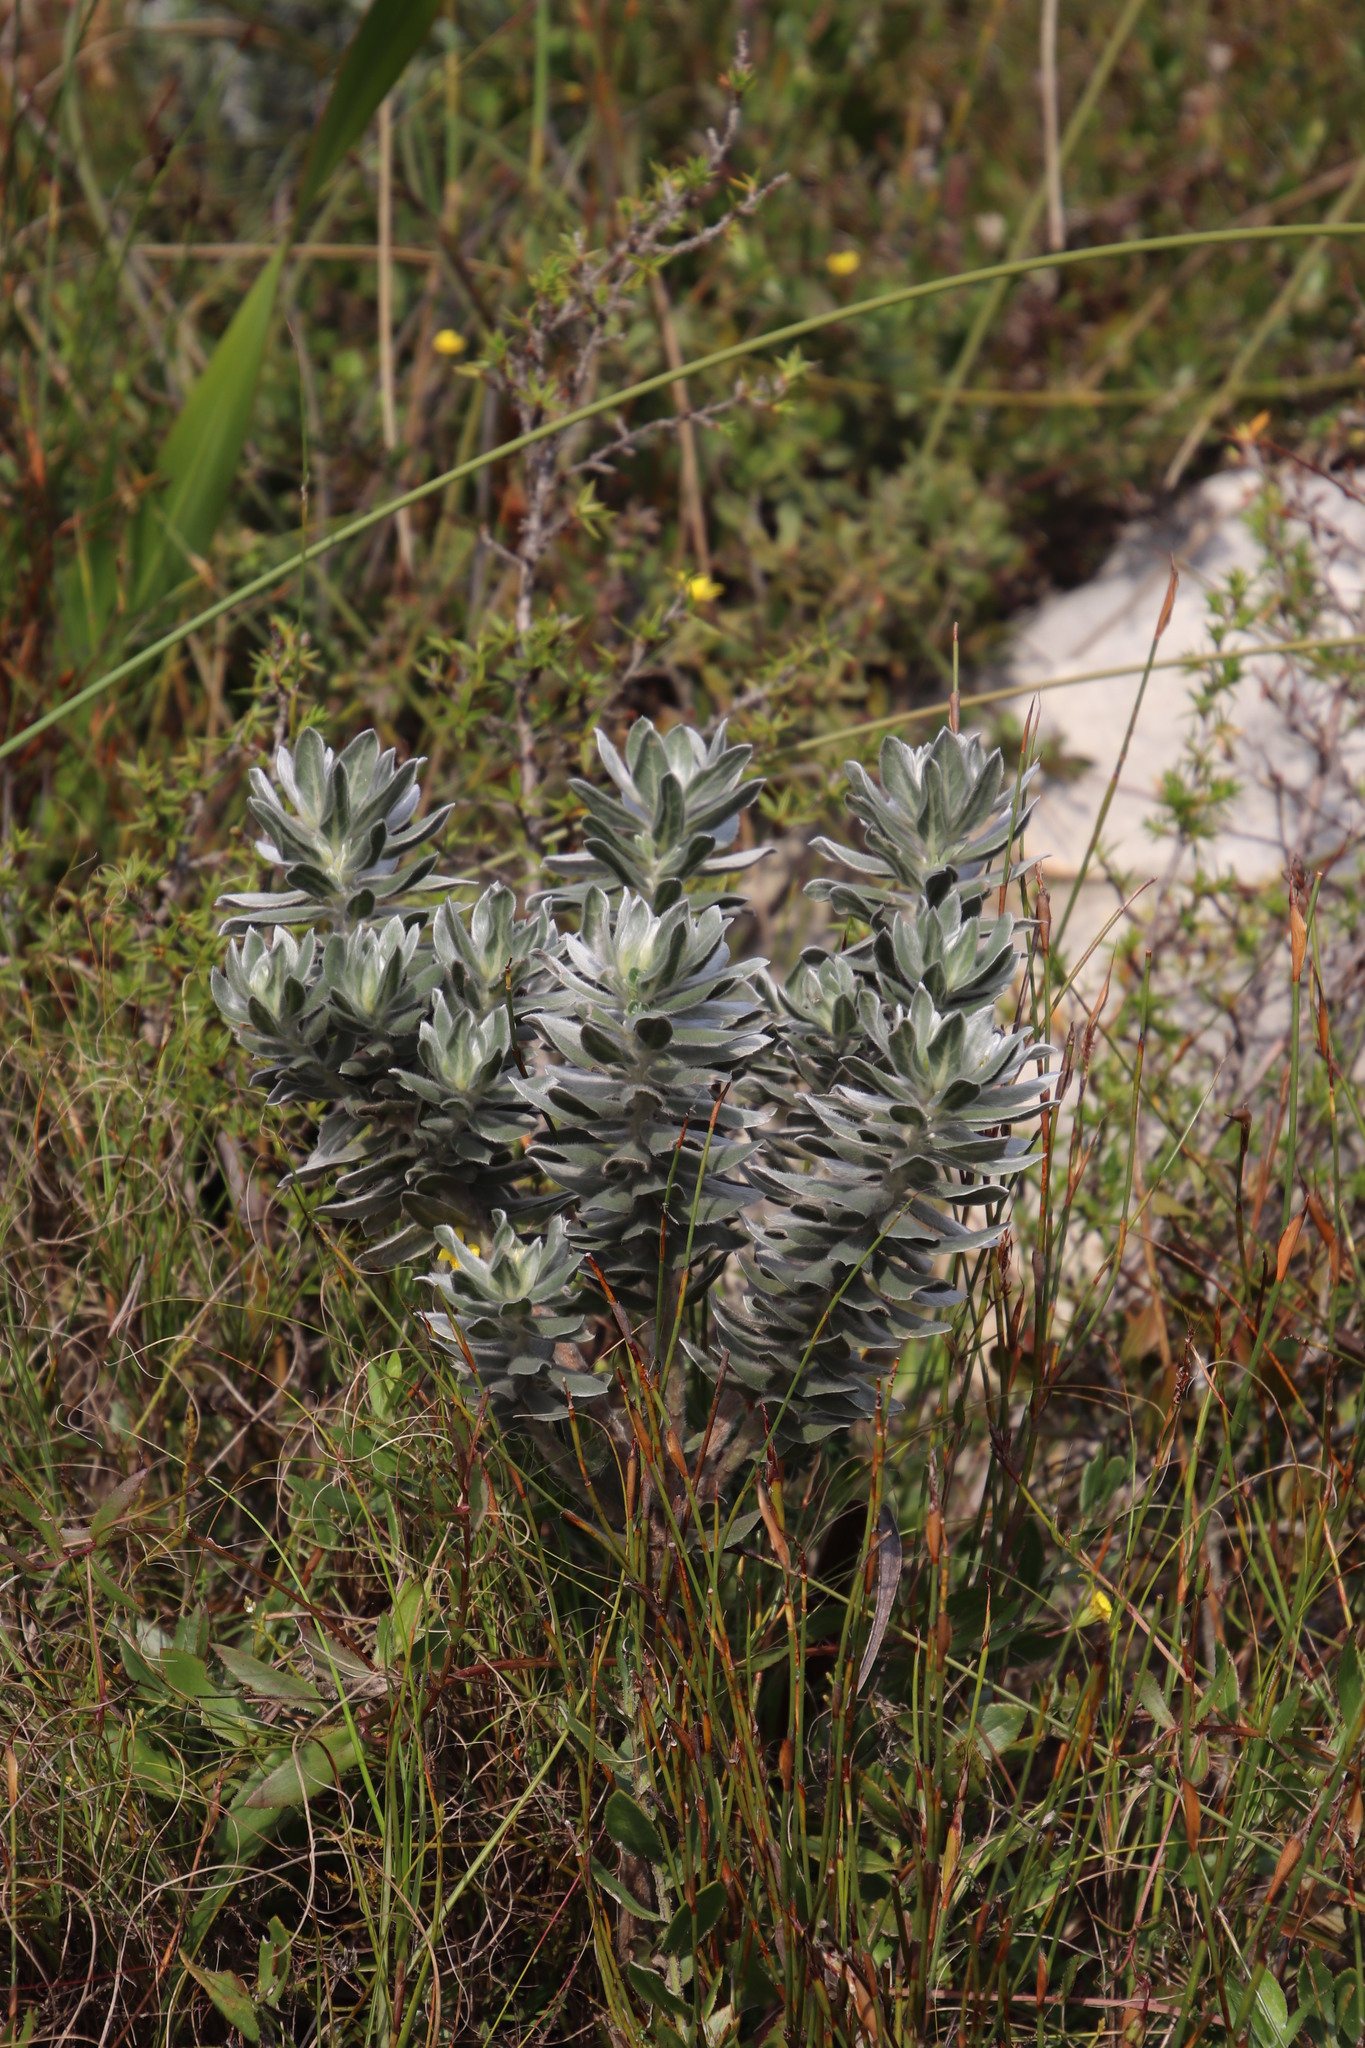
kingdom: Plantae
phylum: Tracheophyta
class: Magnoliopsida
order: Fabales
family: Fabaceae
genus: Xiphotheca
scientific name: Xiphotheca fruticosa
